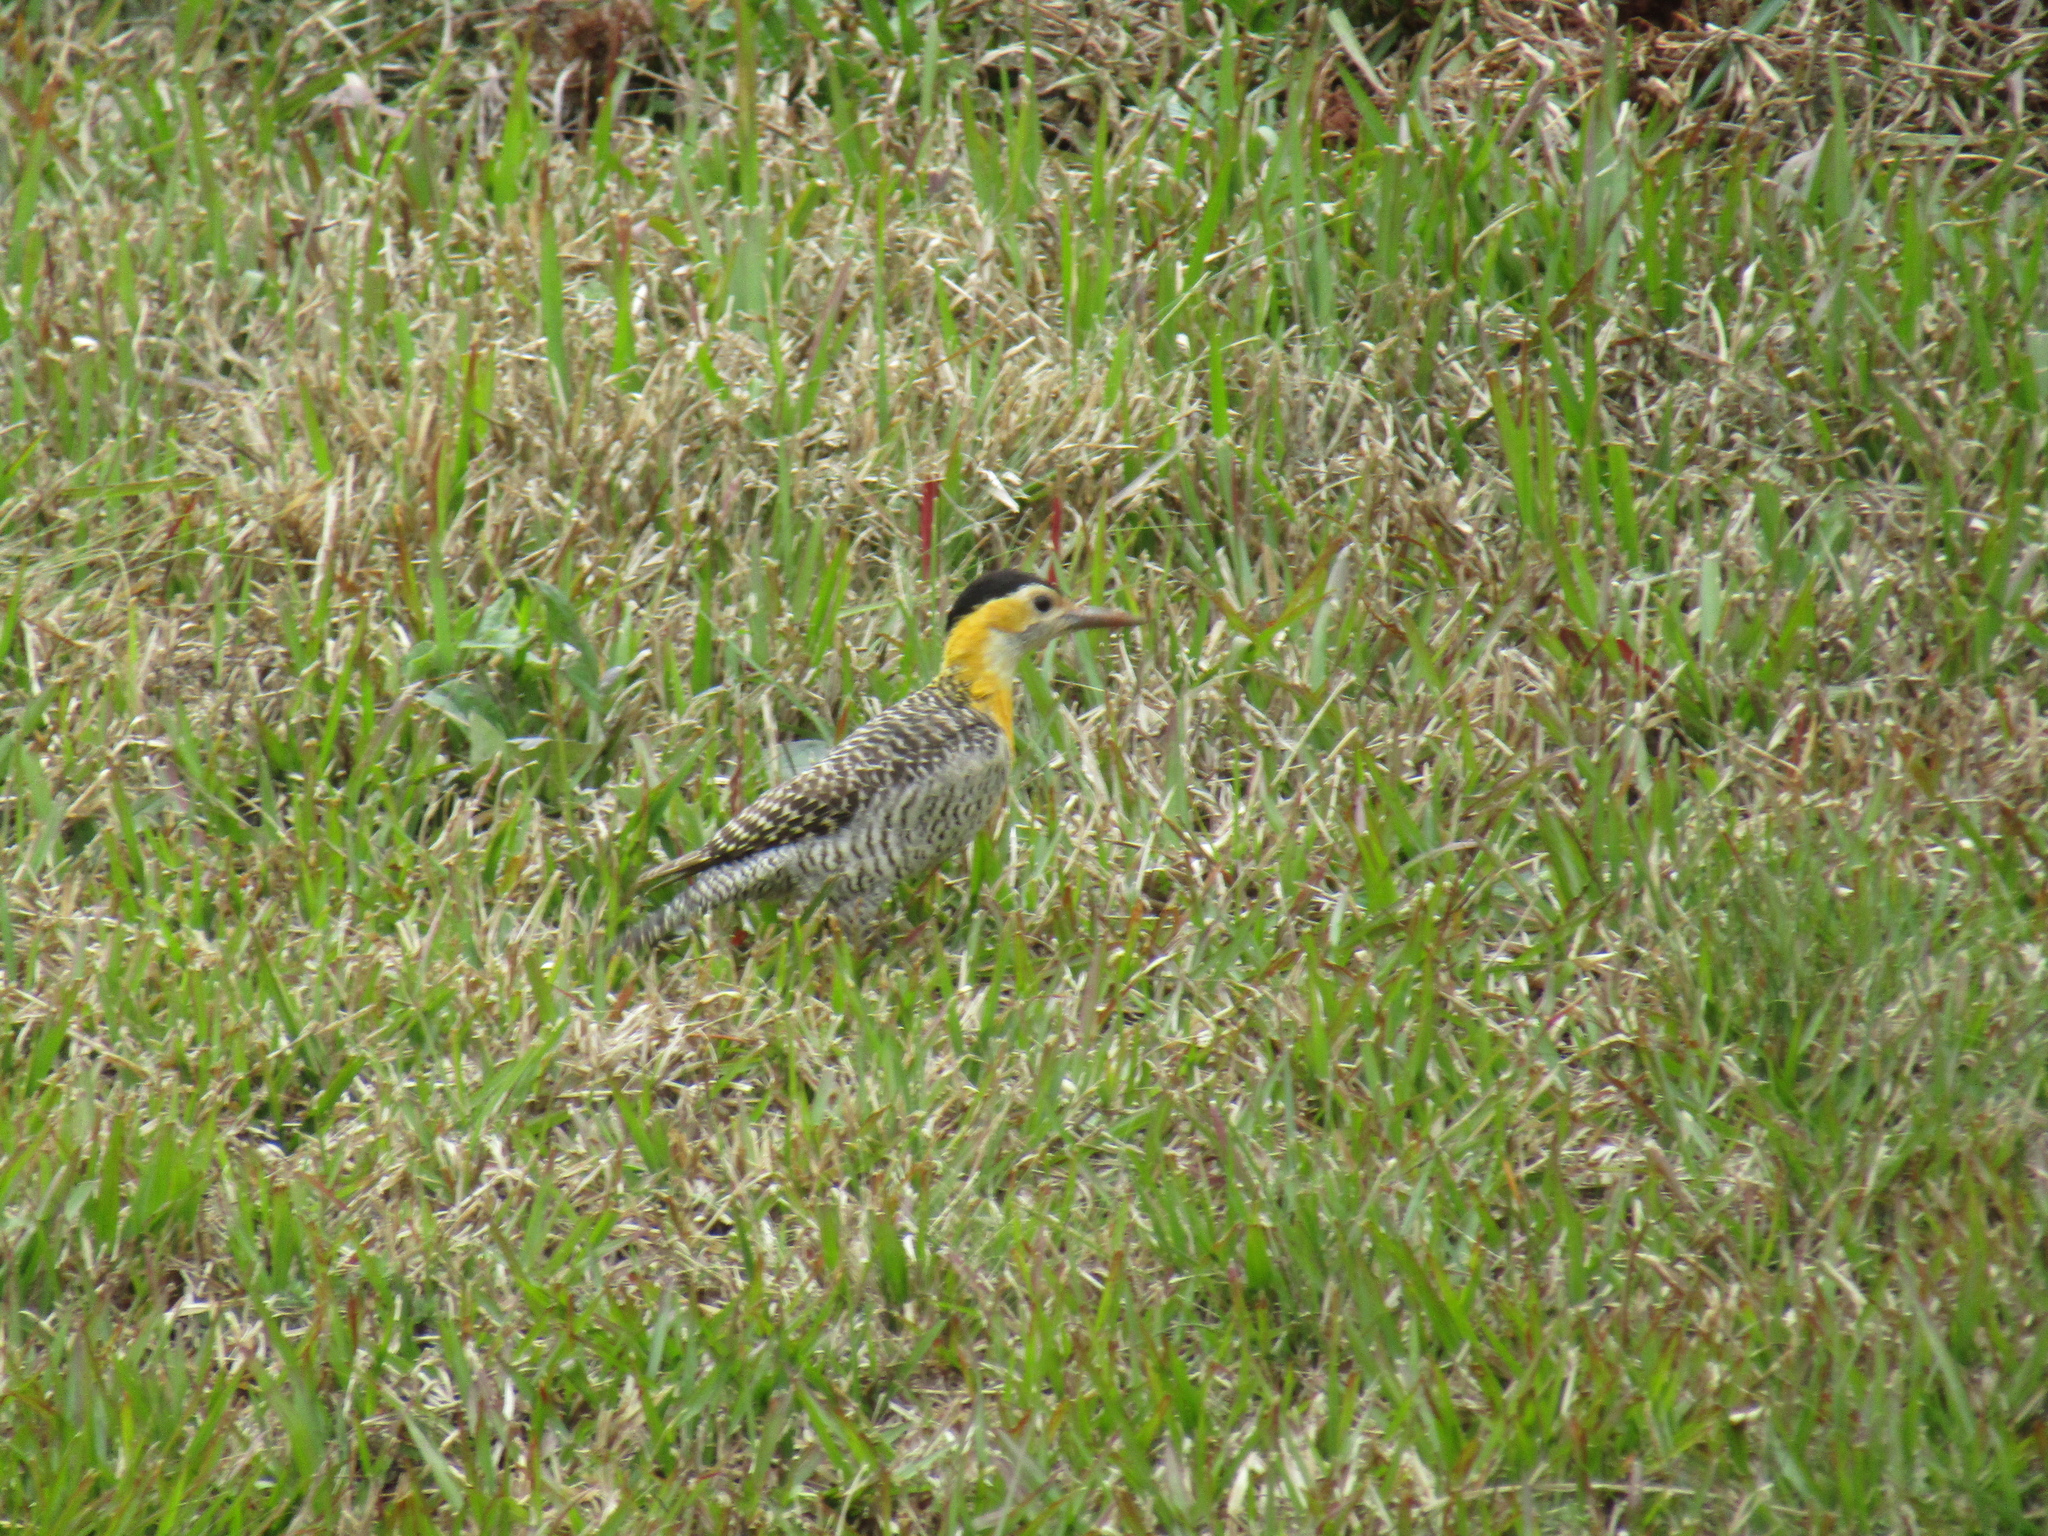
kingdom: Animalia
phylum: Chordata
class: Aves
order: Piciformes
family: Picidae
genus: Colaptes
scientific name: Colaptes campestris
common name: Campo flicker
